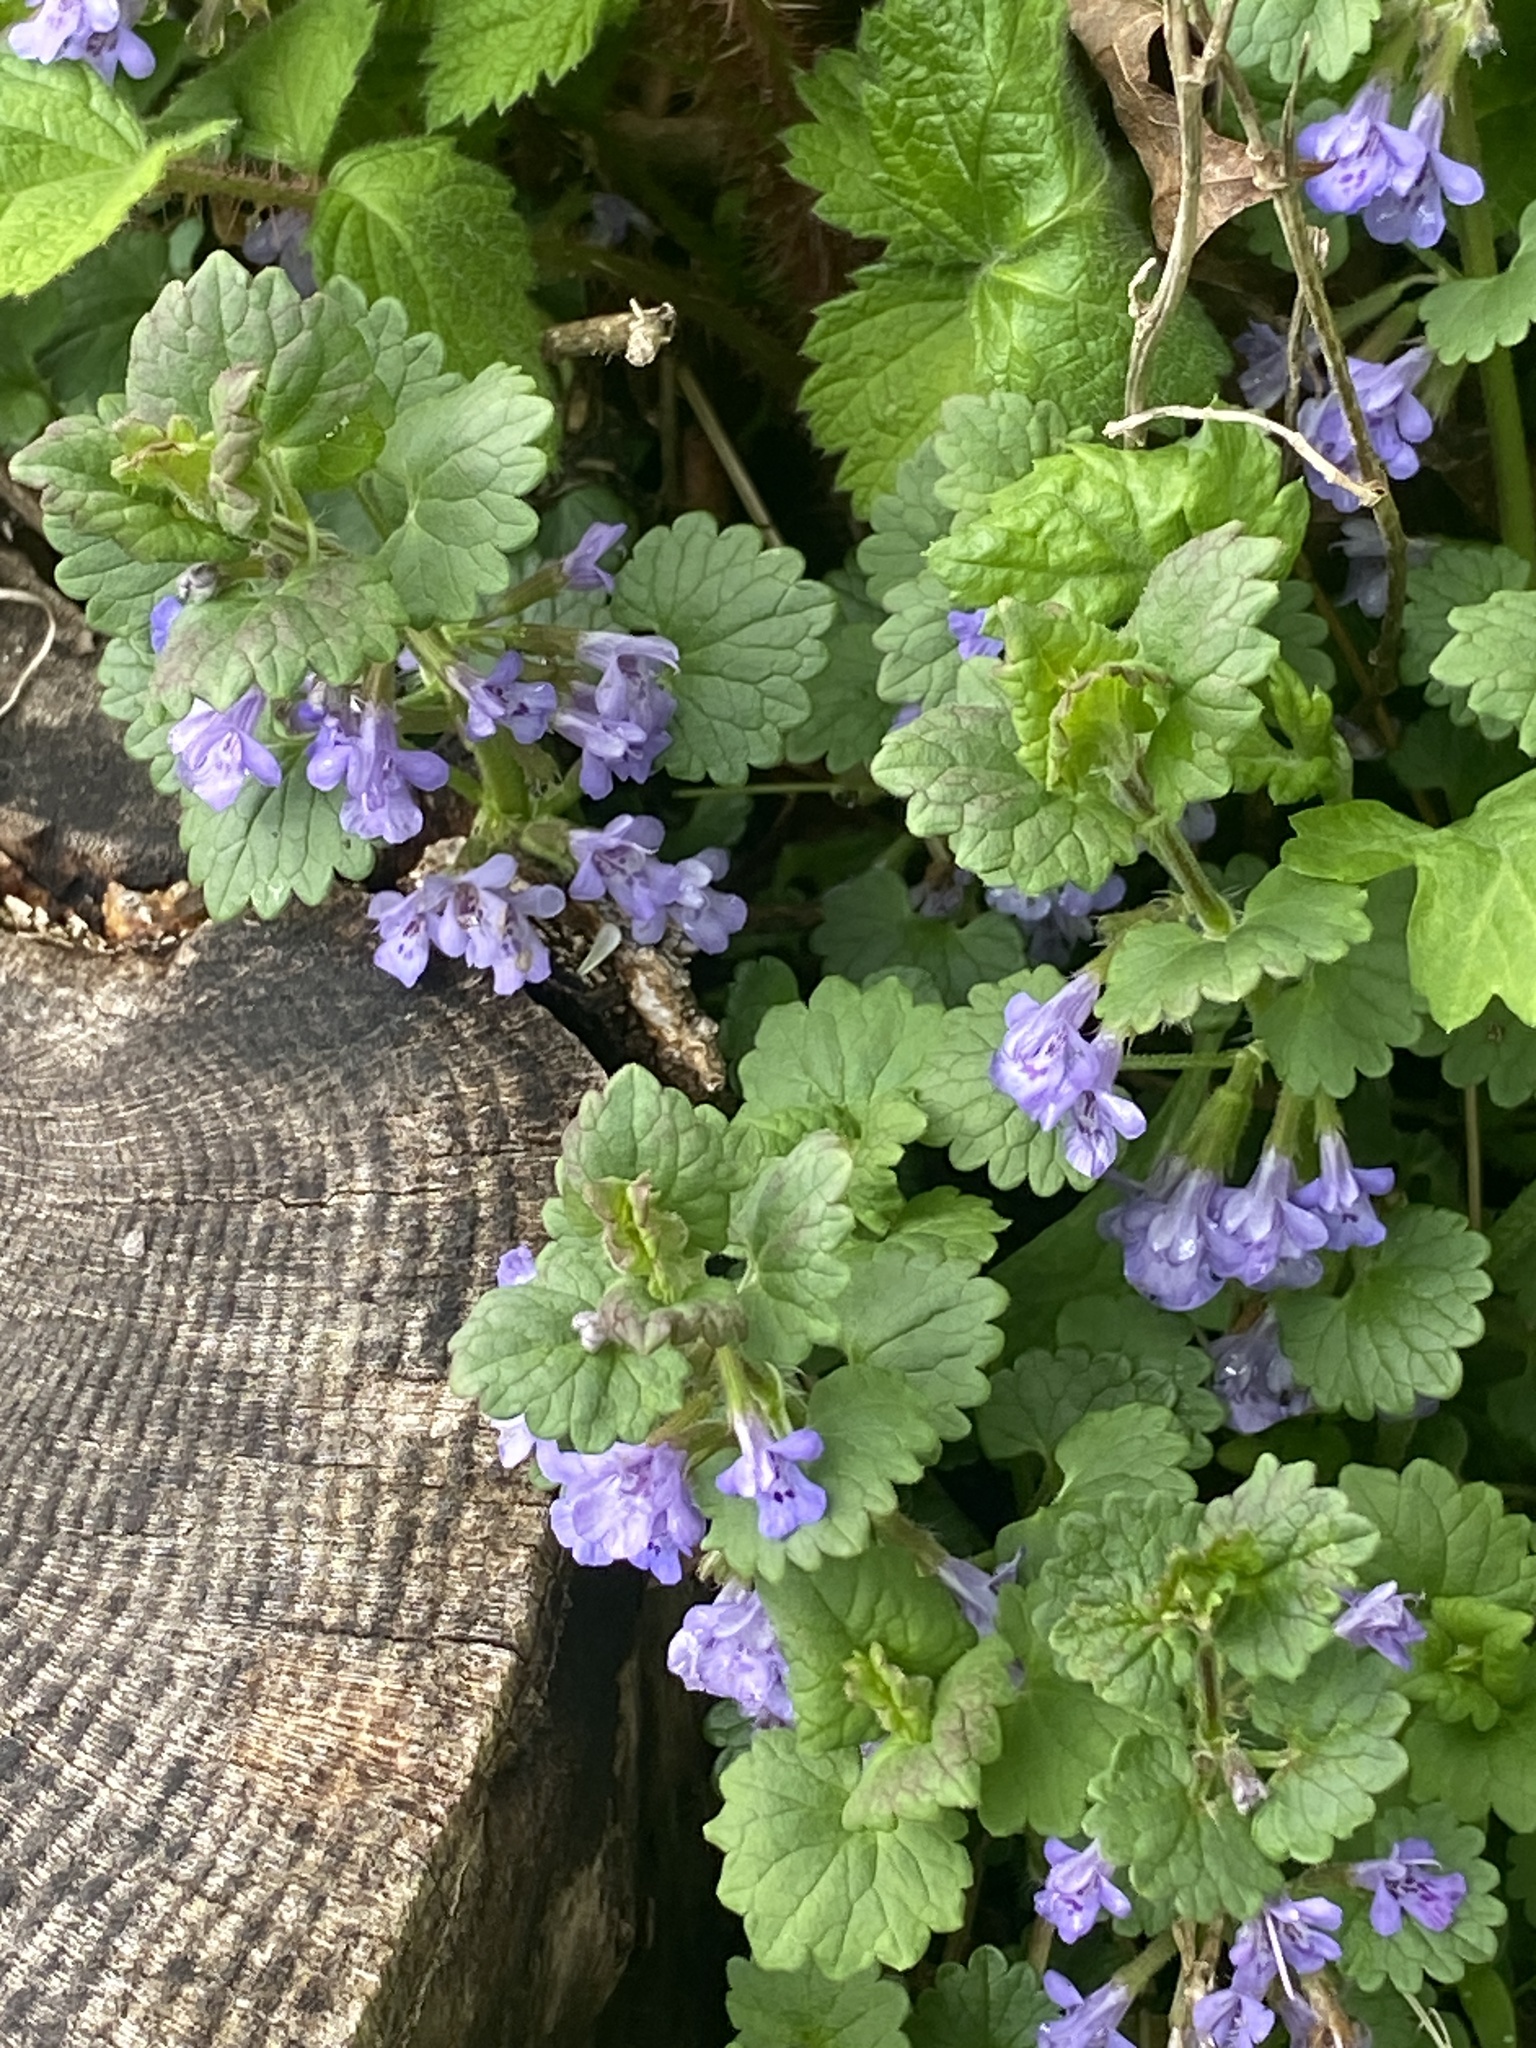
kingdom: Plantae
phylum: Tracheophyta
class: Magnoliopsida
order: Lamiales
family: Lamiaceae
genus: Glechoma
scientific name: Glechoma hederacea
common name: Ground ivy
